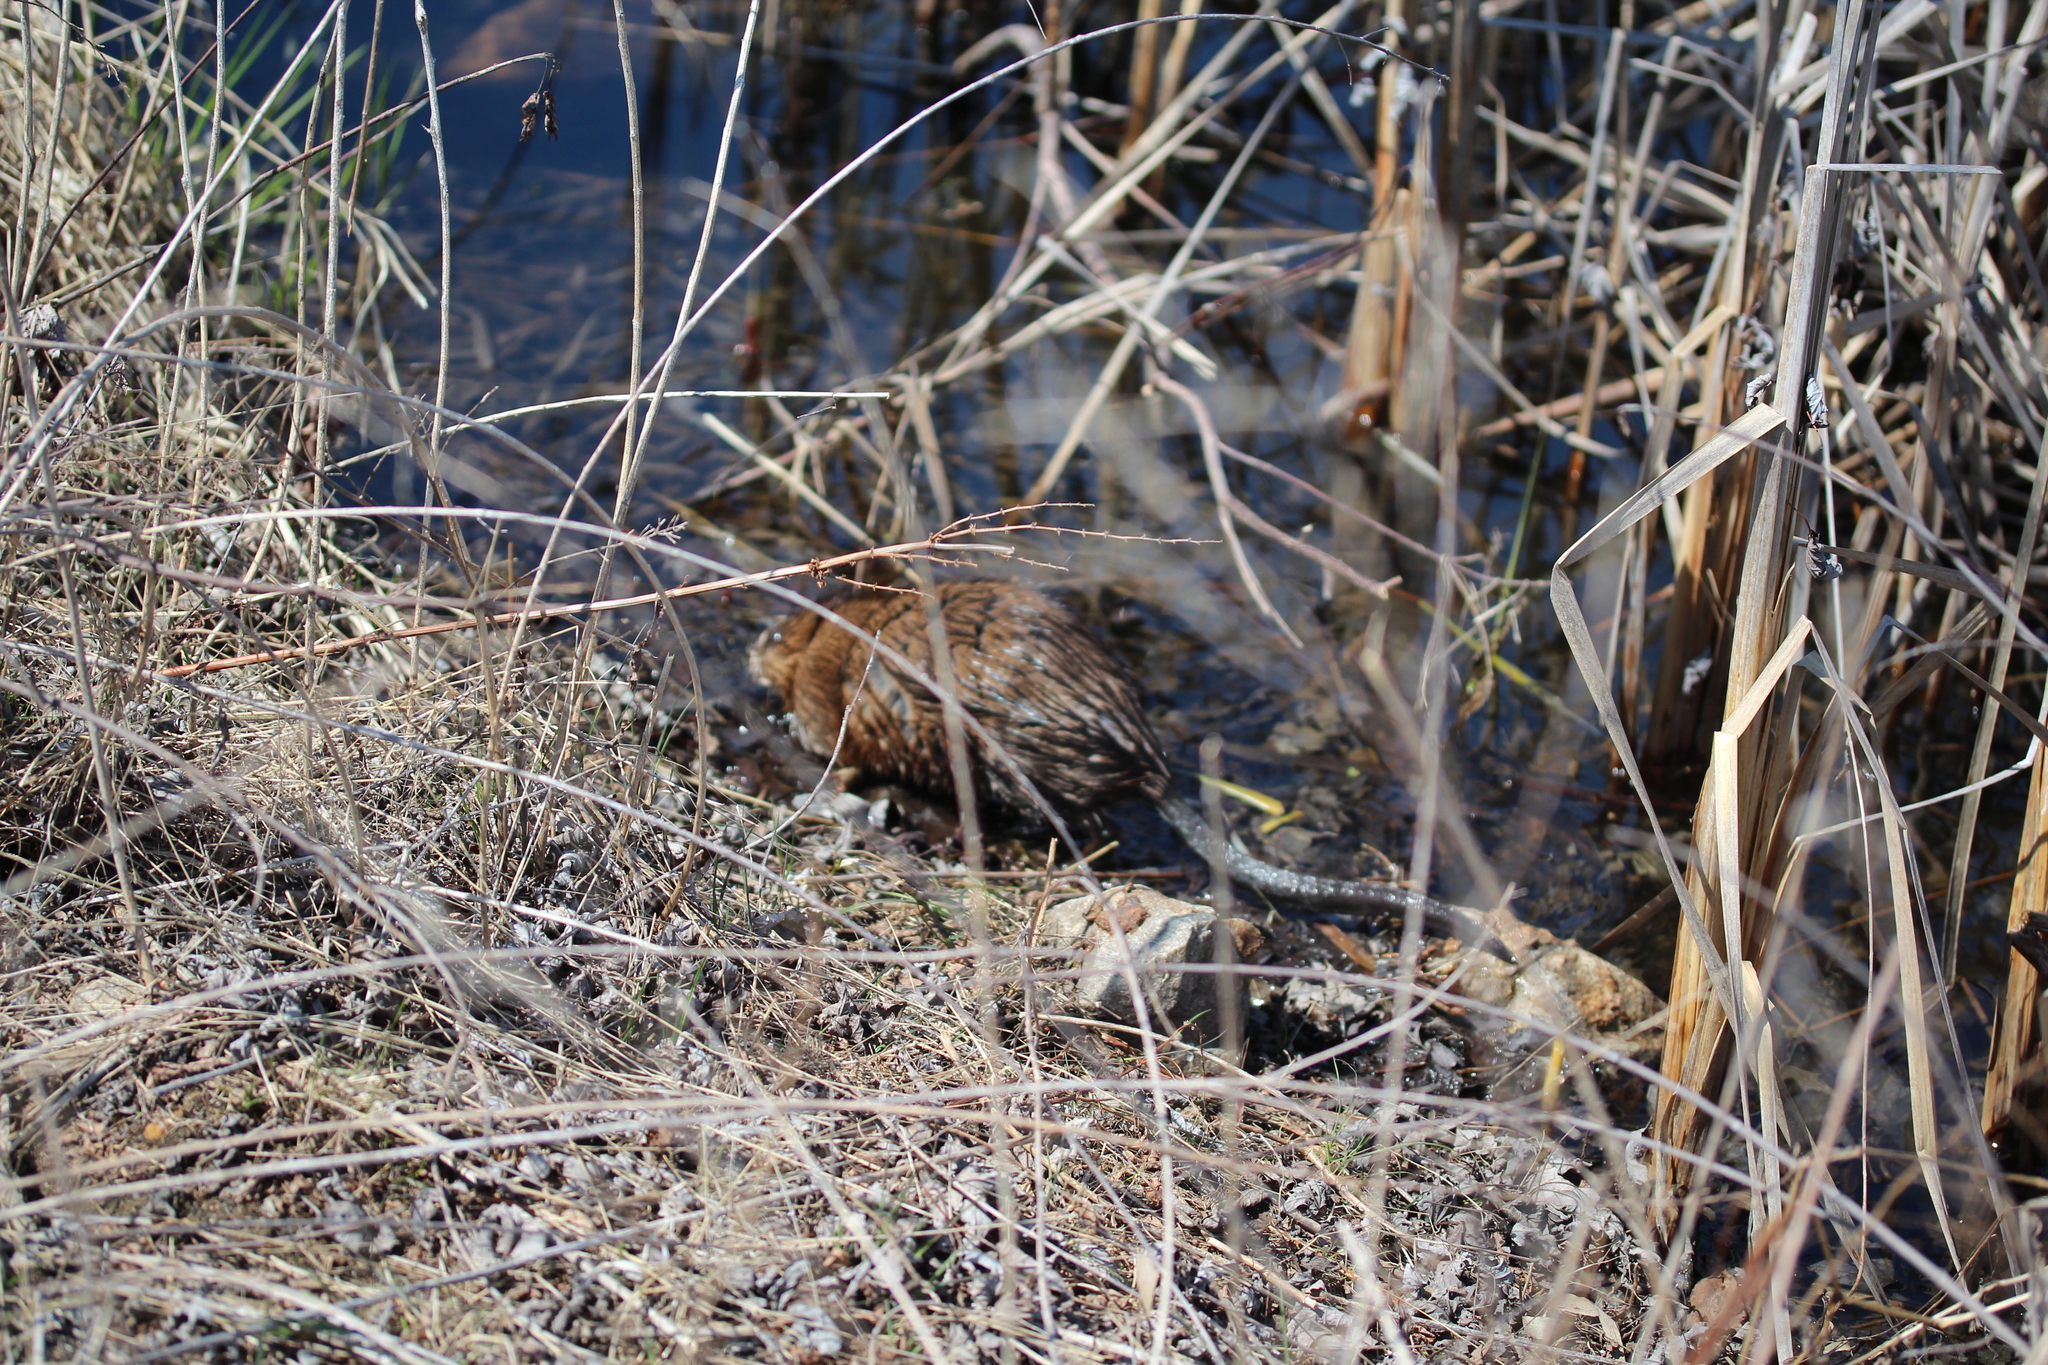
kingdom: Animalia
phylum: Chordata
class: Mammalia
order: Rodentia
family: Cricetidae
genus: Ondatra
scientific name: Ondatra zibethicus
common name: Muskrat
